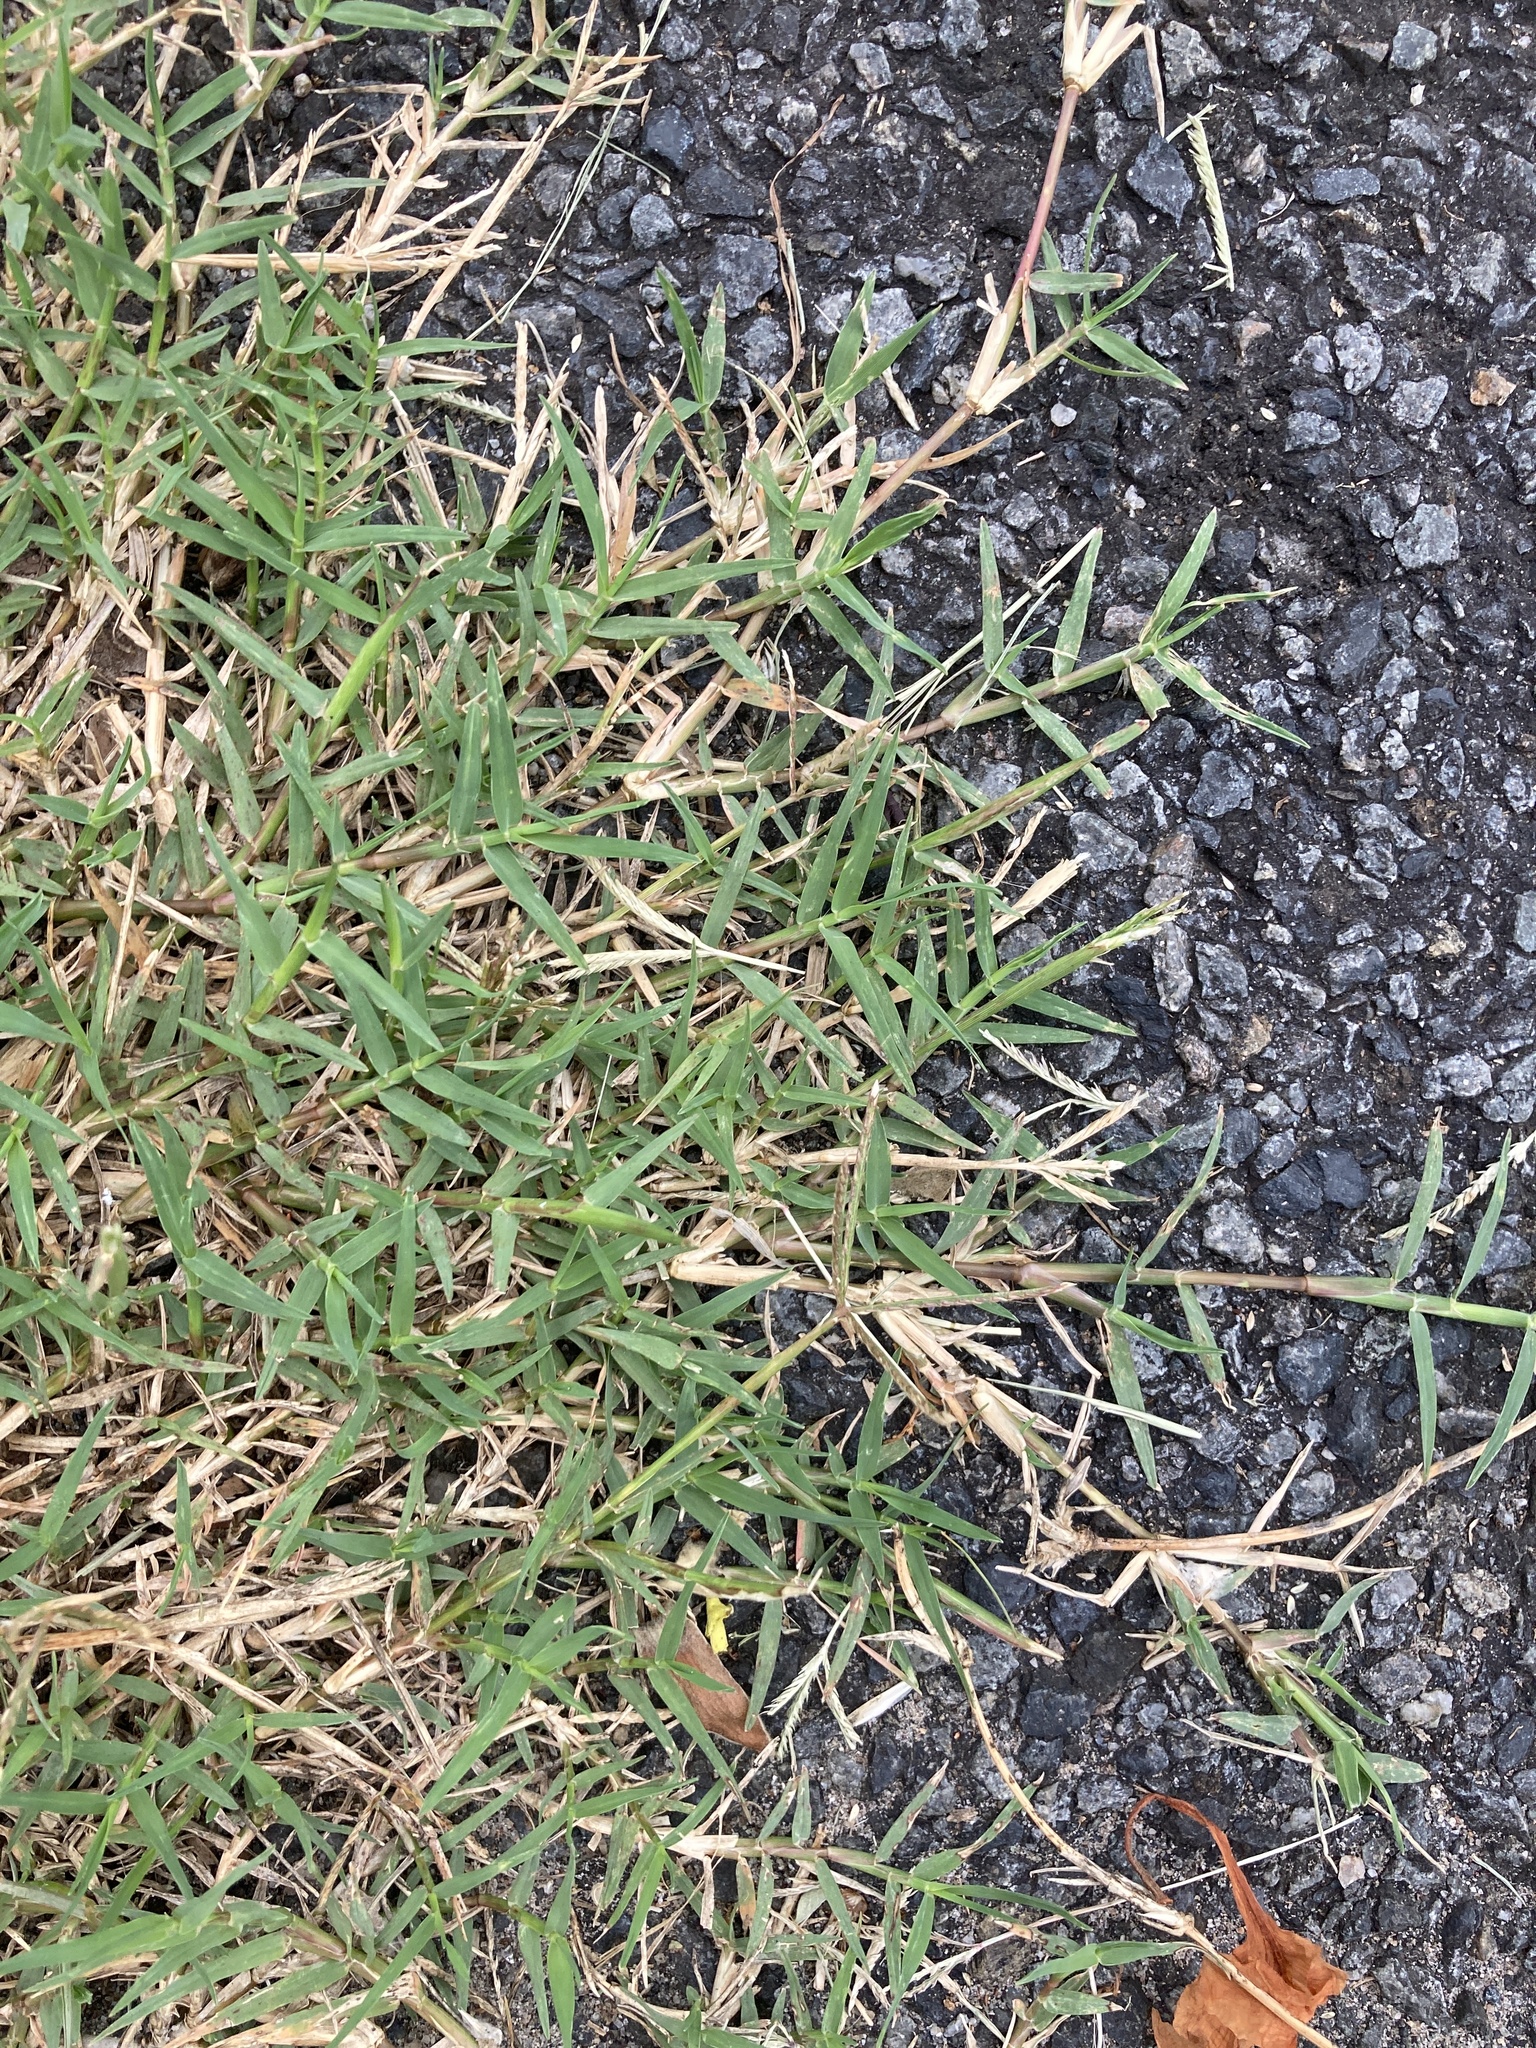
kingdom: Plantae
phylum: Tracheophyta
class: Liliopsida
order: Poales
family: Poaceae
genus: Cynodon
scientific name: Cynodon dactylon
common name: Bermuda grass
